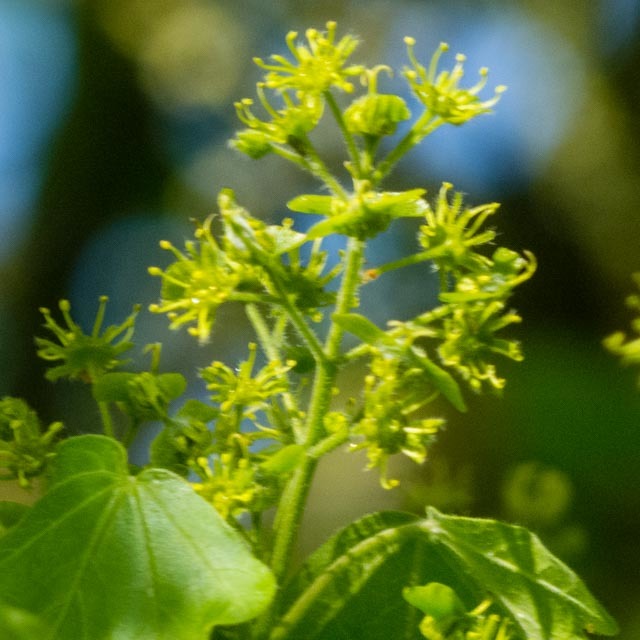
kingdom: Plantae
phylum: Tracheophyta
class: Magnoliopsida
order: Sapindales
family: Sapindaceae
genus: Acer
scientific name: Acer campestre
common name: Field maple
